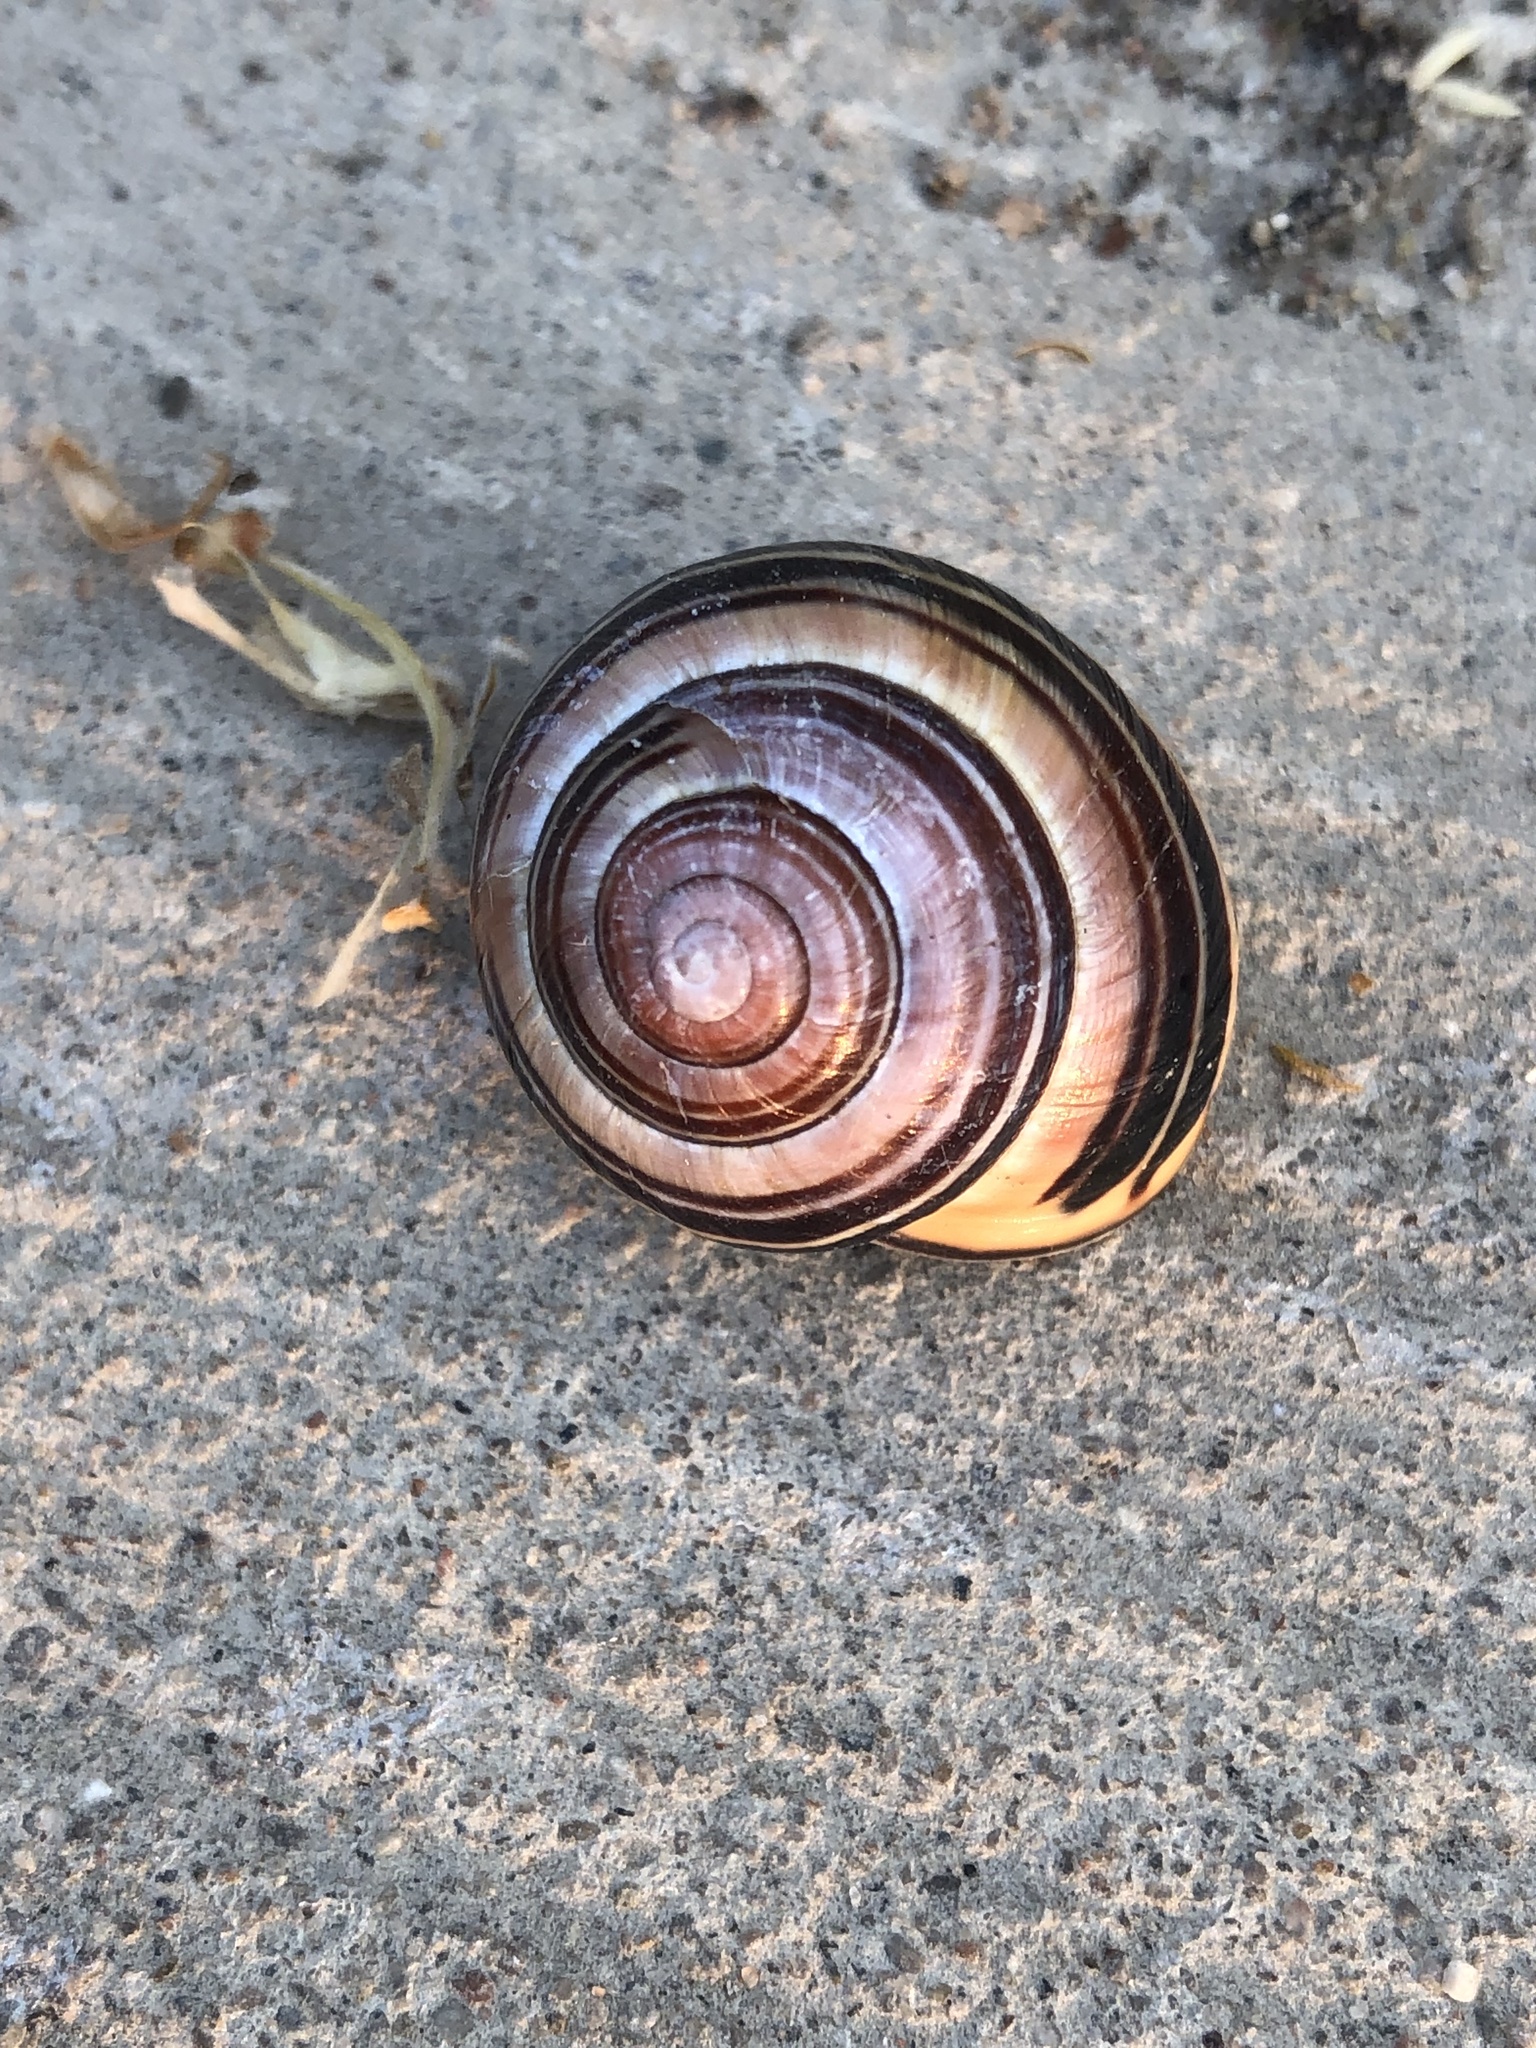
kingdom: Animalia
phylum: Mollusca
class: Gastropoda
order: Stylommatophora
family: Helicidae
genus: Cepaea
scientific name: Cepaea nemoralis
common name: Grovesnail
